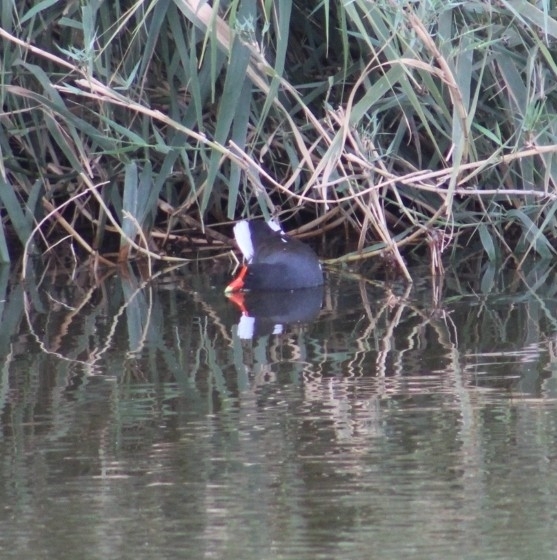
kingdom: Animalia
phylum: Chordata
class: Aves
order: Gruiformes
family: Rallidae
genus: Gallinula
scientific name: Gallinula chloropus
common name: Common moorhen
